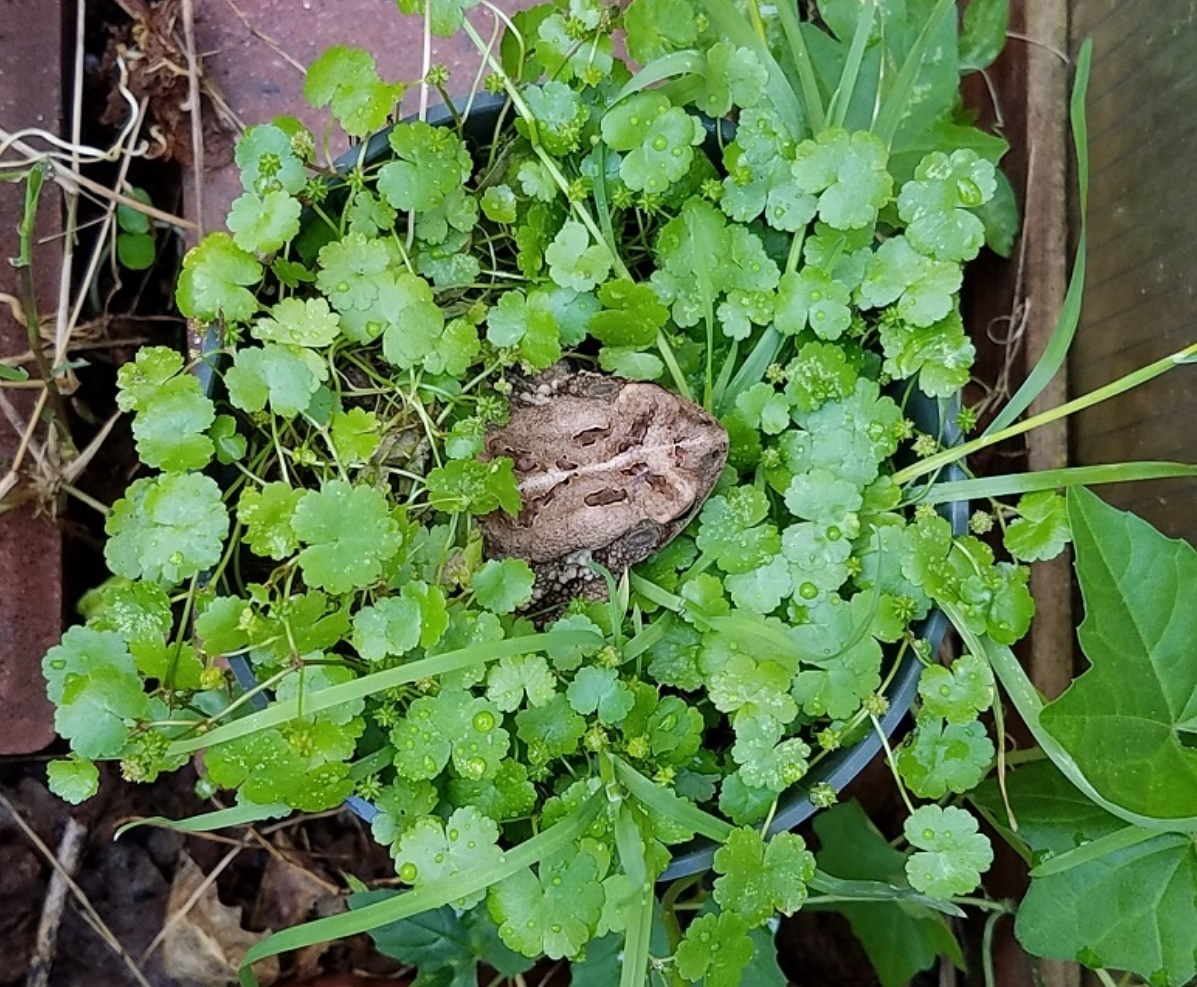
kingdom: Animalia
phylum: Chordata
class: Amphibia
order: Anura
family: Bufonidae
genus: Anaxyrus
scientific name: Anaxyrus fowleri
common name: Fowler's toad
